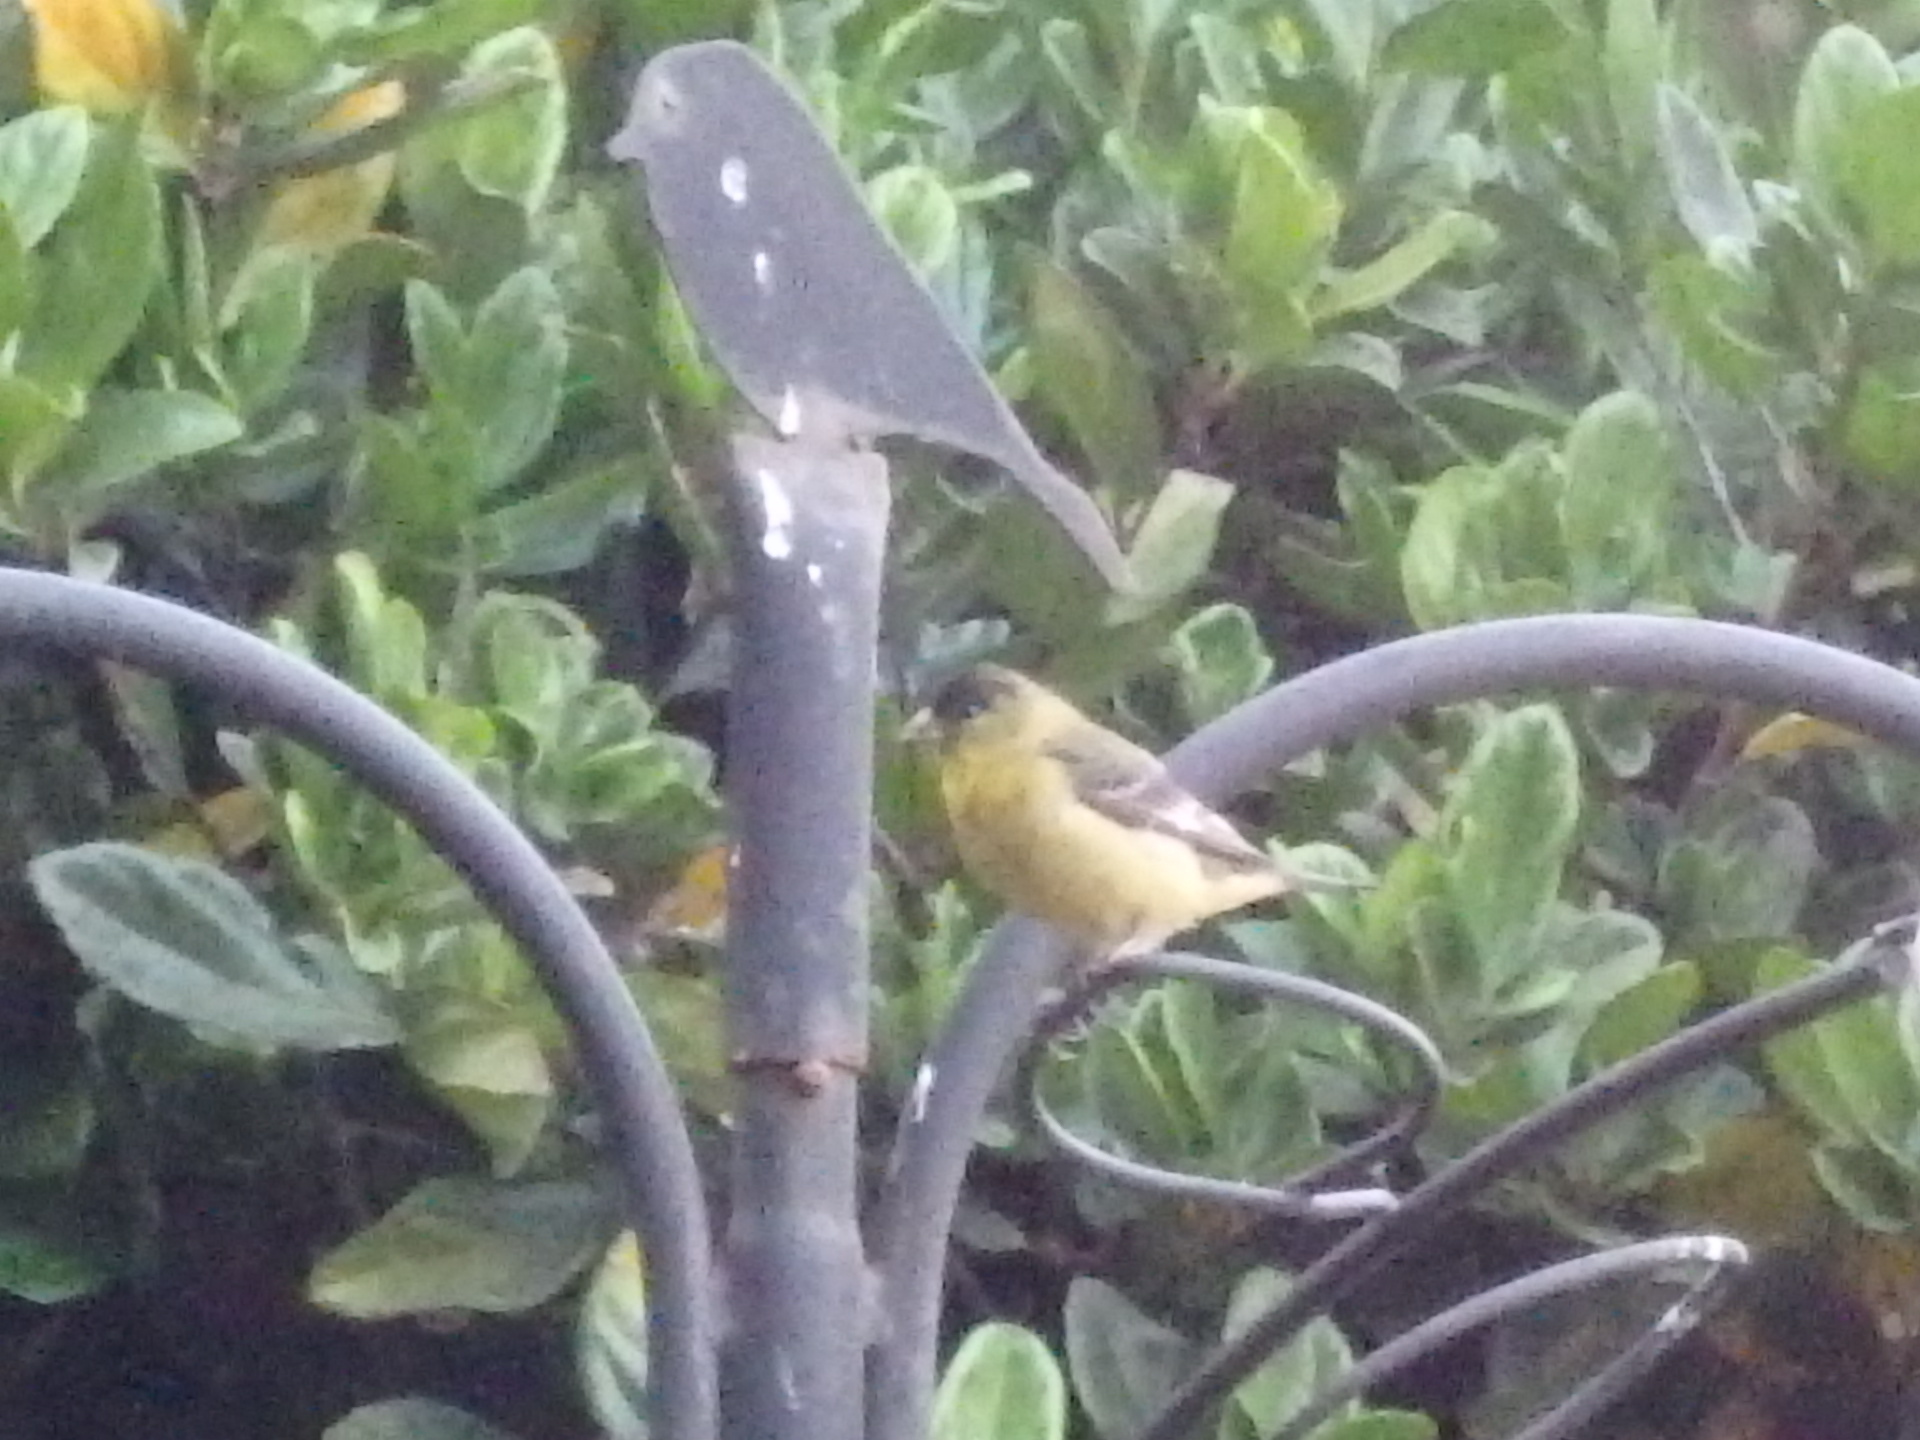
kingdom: Animalia
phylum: Chordata
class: Aves
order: Passeriformes
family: Fringillidae
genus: Spinus
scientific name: Spinus psaltria
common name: Lesser goldfinch
